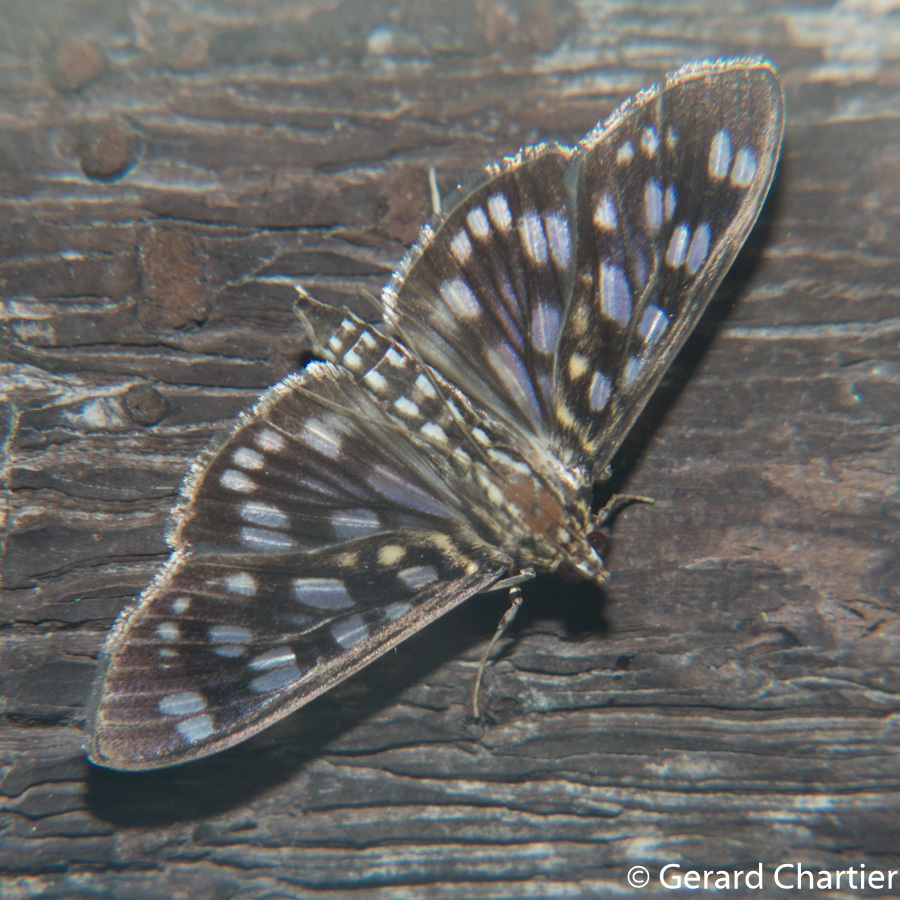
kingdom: Animalia
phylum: Arthropoda
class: Insecta
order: Lepidoptera
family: Crambidae
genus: Pygospila
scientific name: Pygospila tyres
